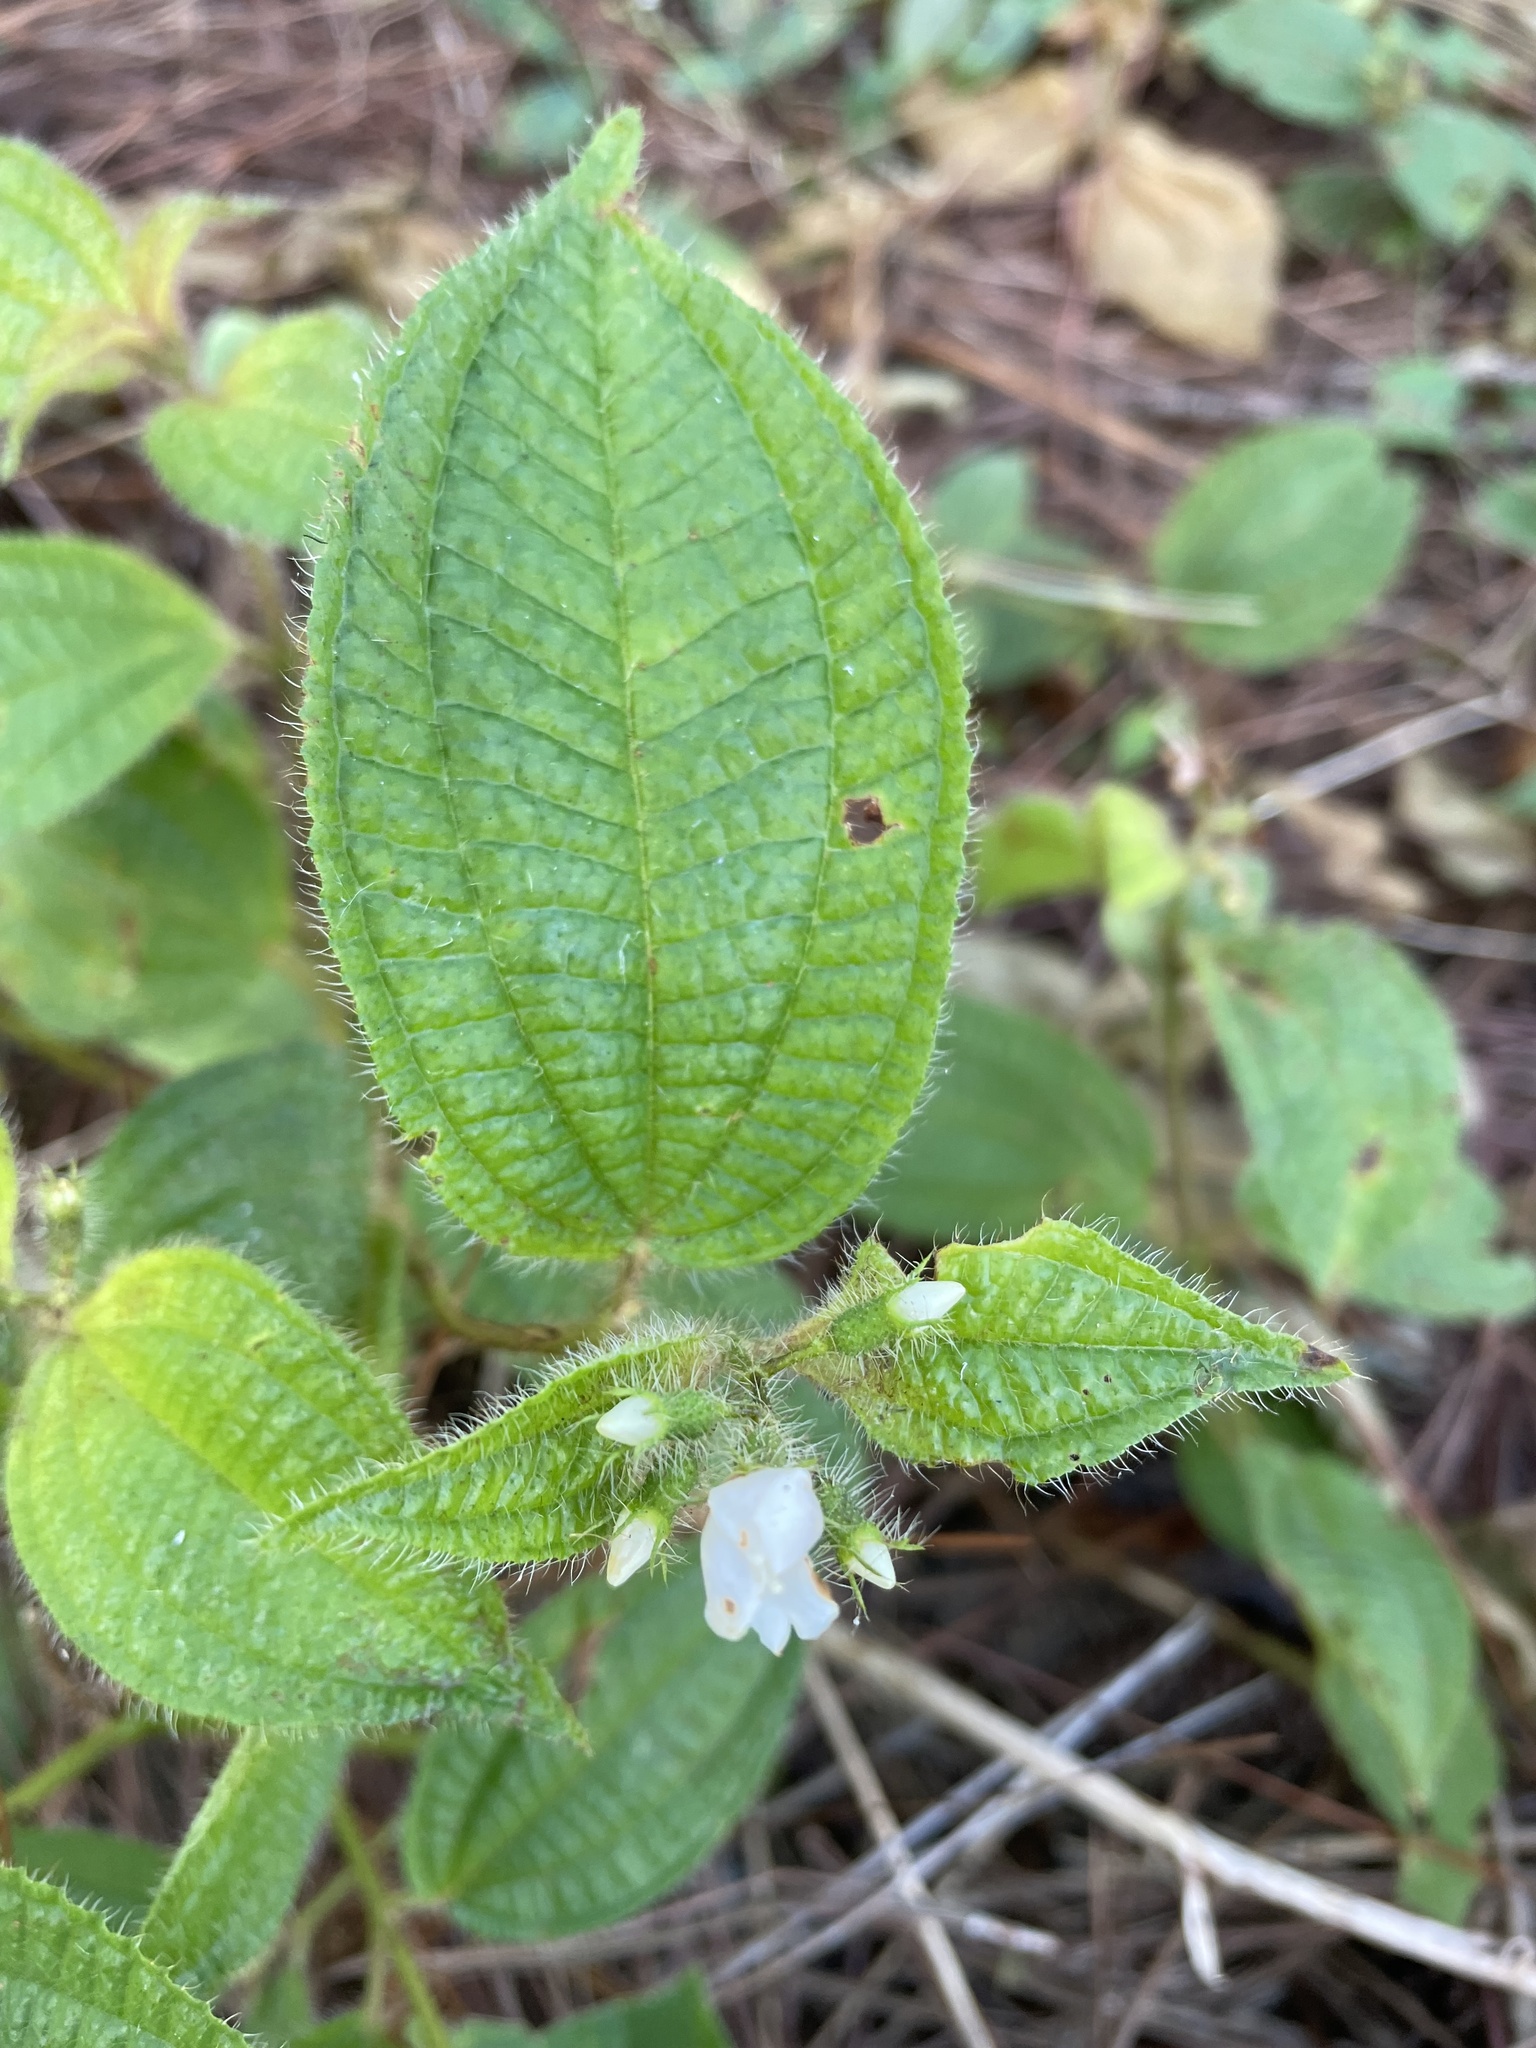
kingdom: Plantae
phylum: Tracheophyta
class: Magnoliopsida
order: Myrtales
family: Melastomataceae
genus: Miconia
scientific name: Miconia crenata
